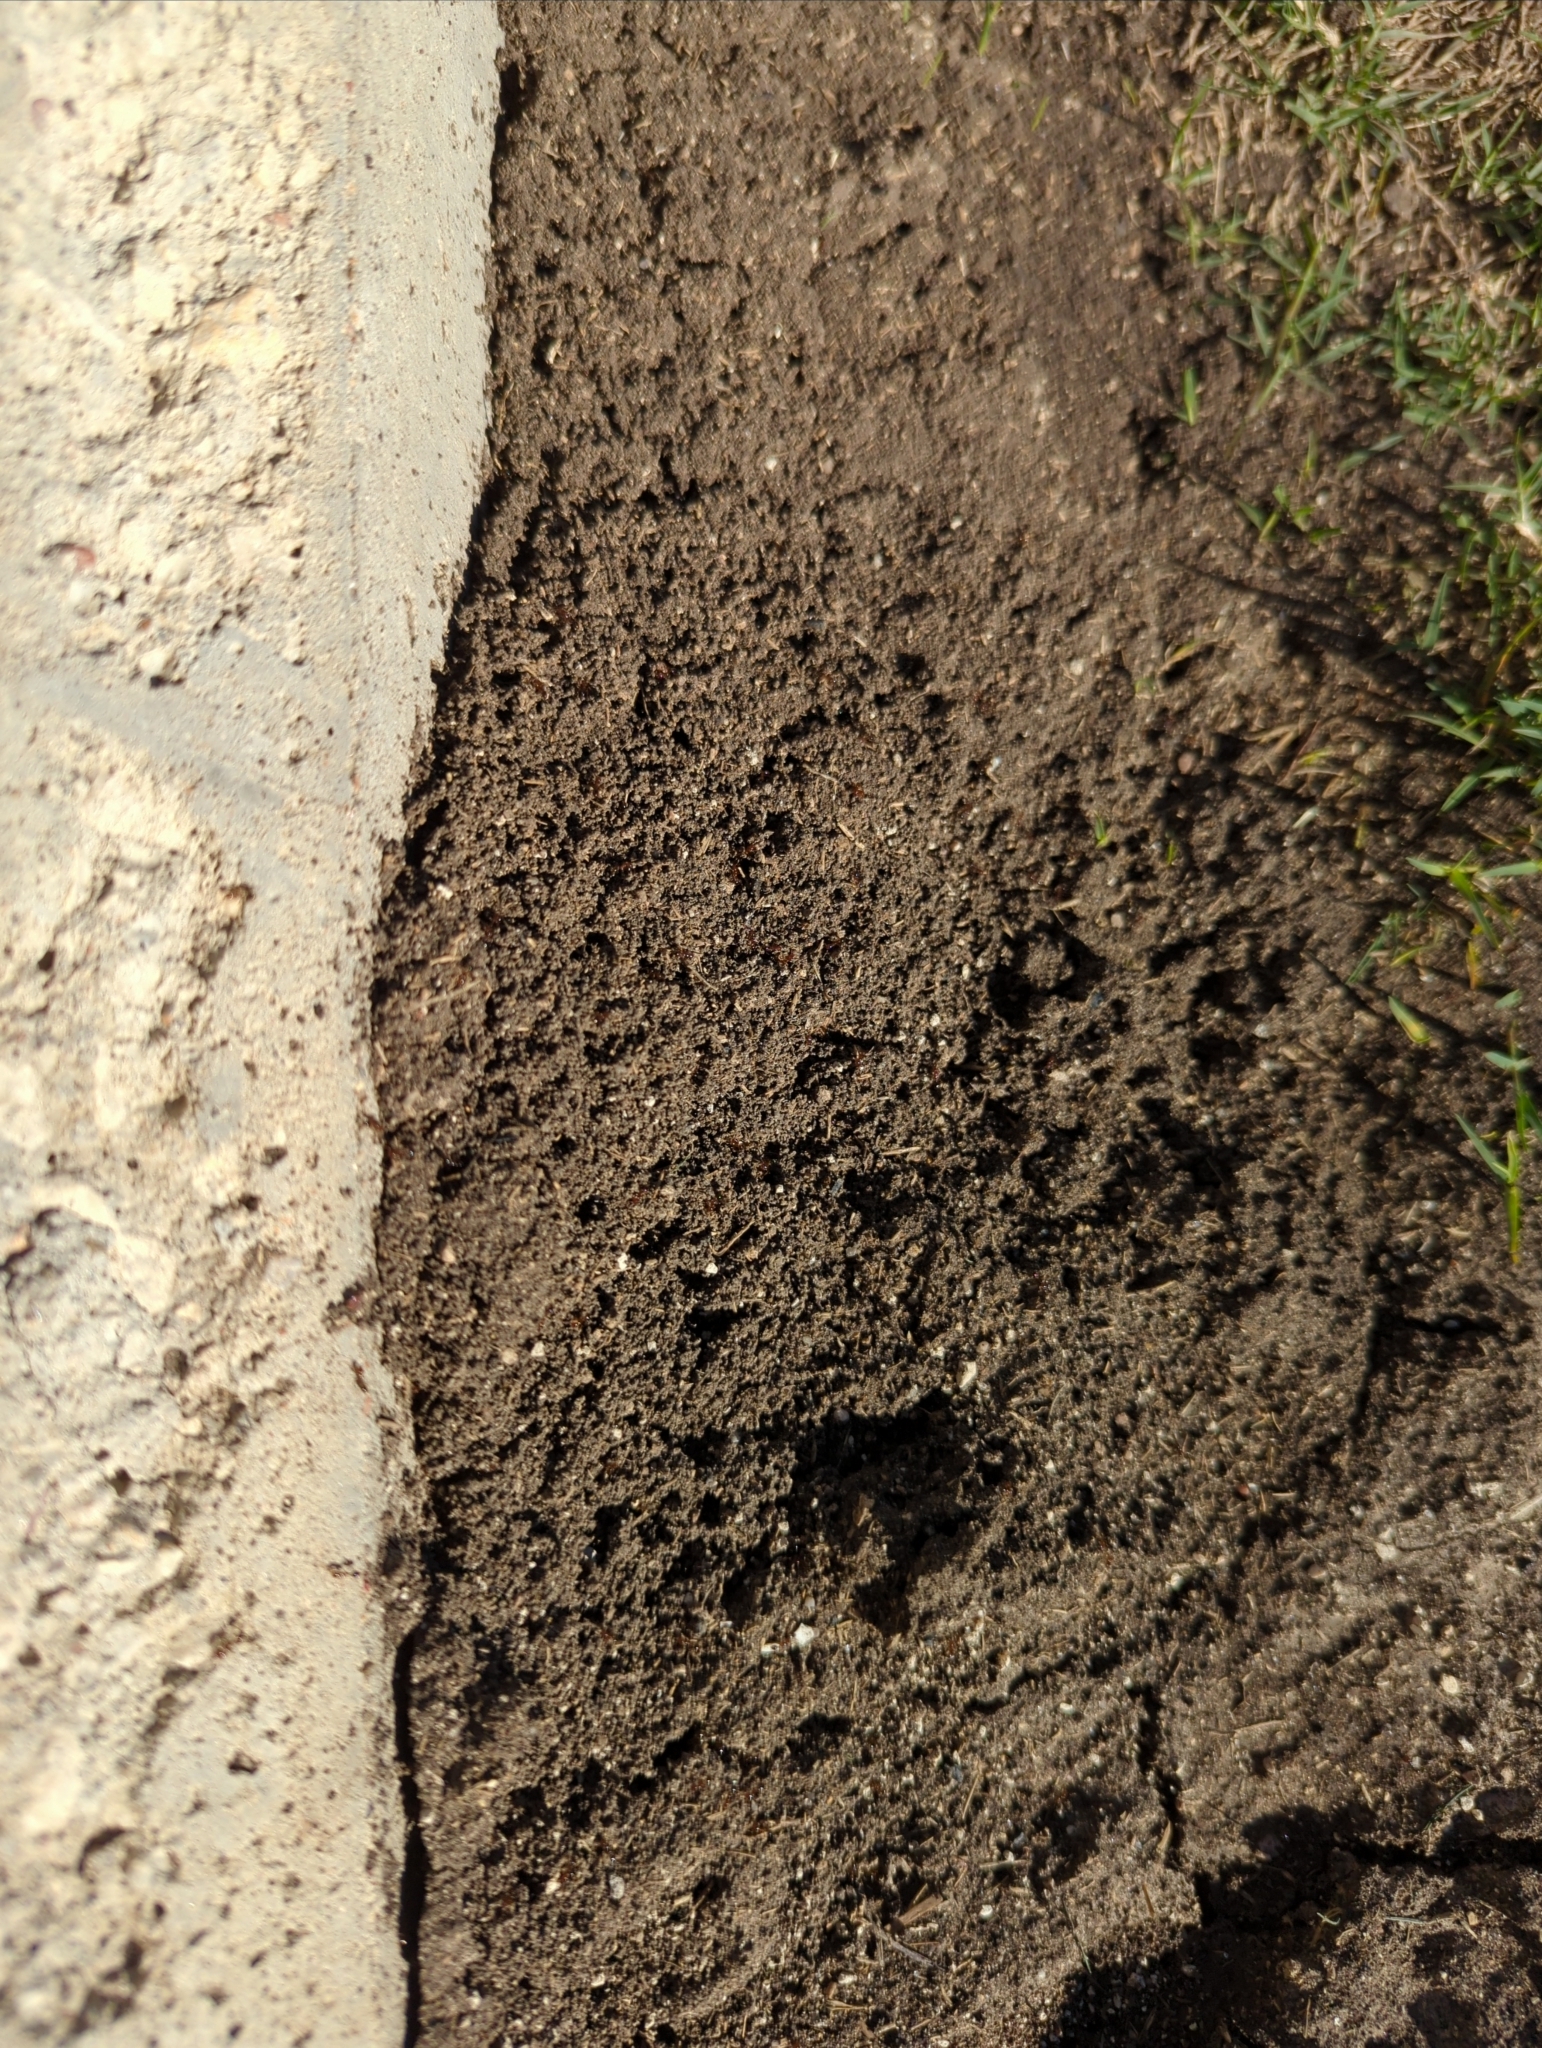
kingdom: Animalia
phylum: Arthropoda
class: Insecta
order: Hymenoptera
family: Formicidae
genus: Solenopsis
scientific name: Solenopsis invicta
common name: Red imported fire ant
